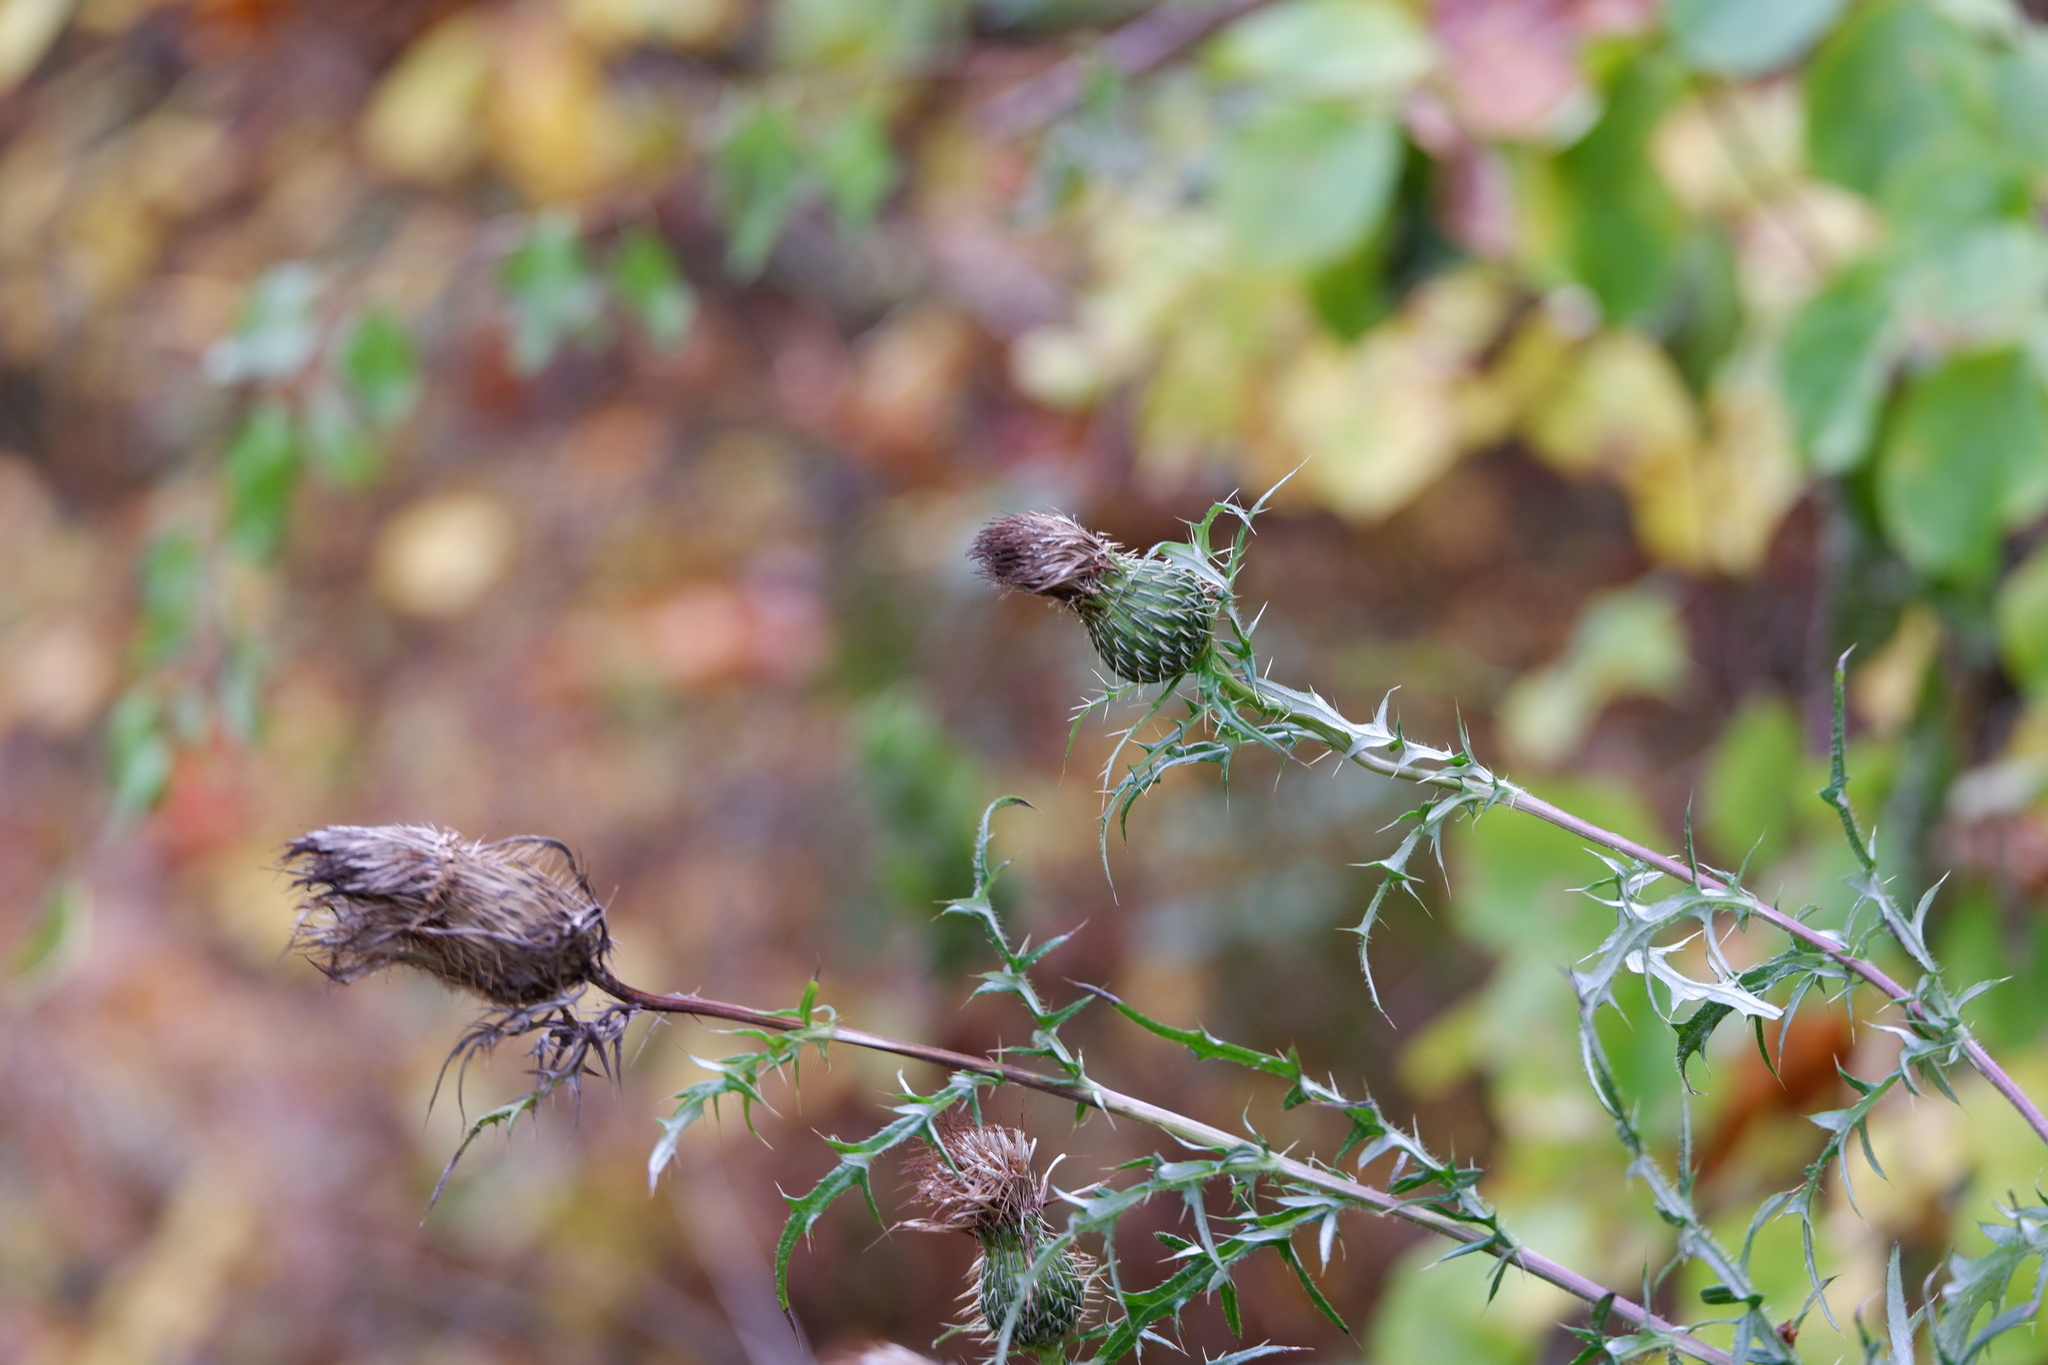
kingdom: Plantae
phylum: Tracheophyta
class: Magnoliopsida
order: Asterales
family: Asteraceae
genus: Cirsium
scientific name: Cirsium discolor
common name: Field thistle
